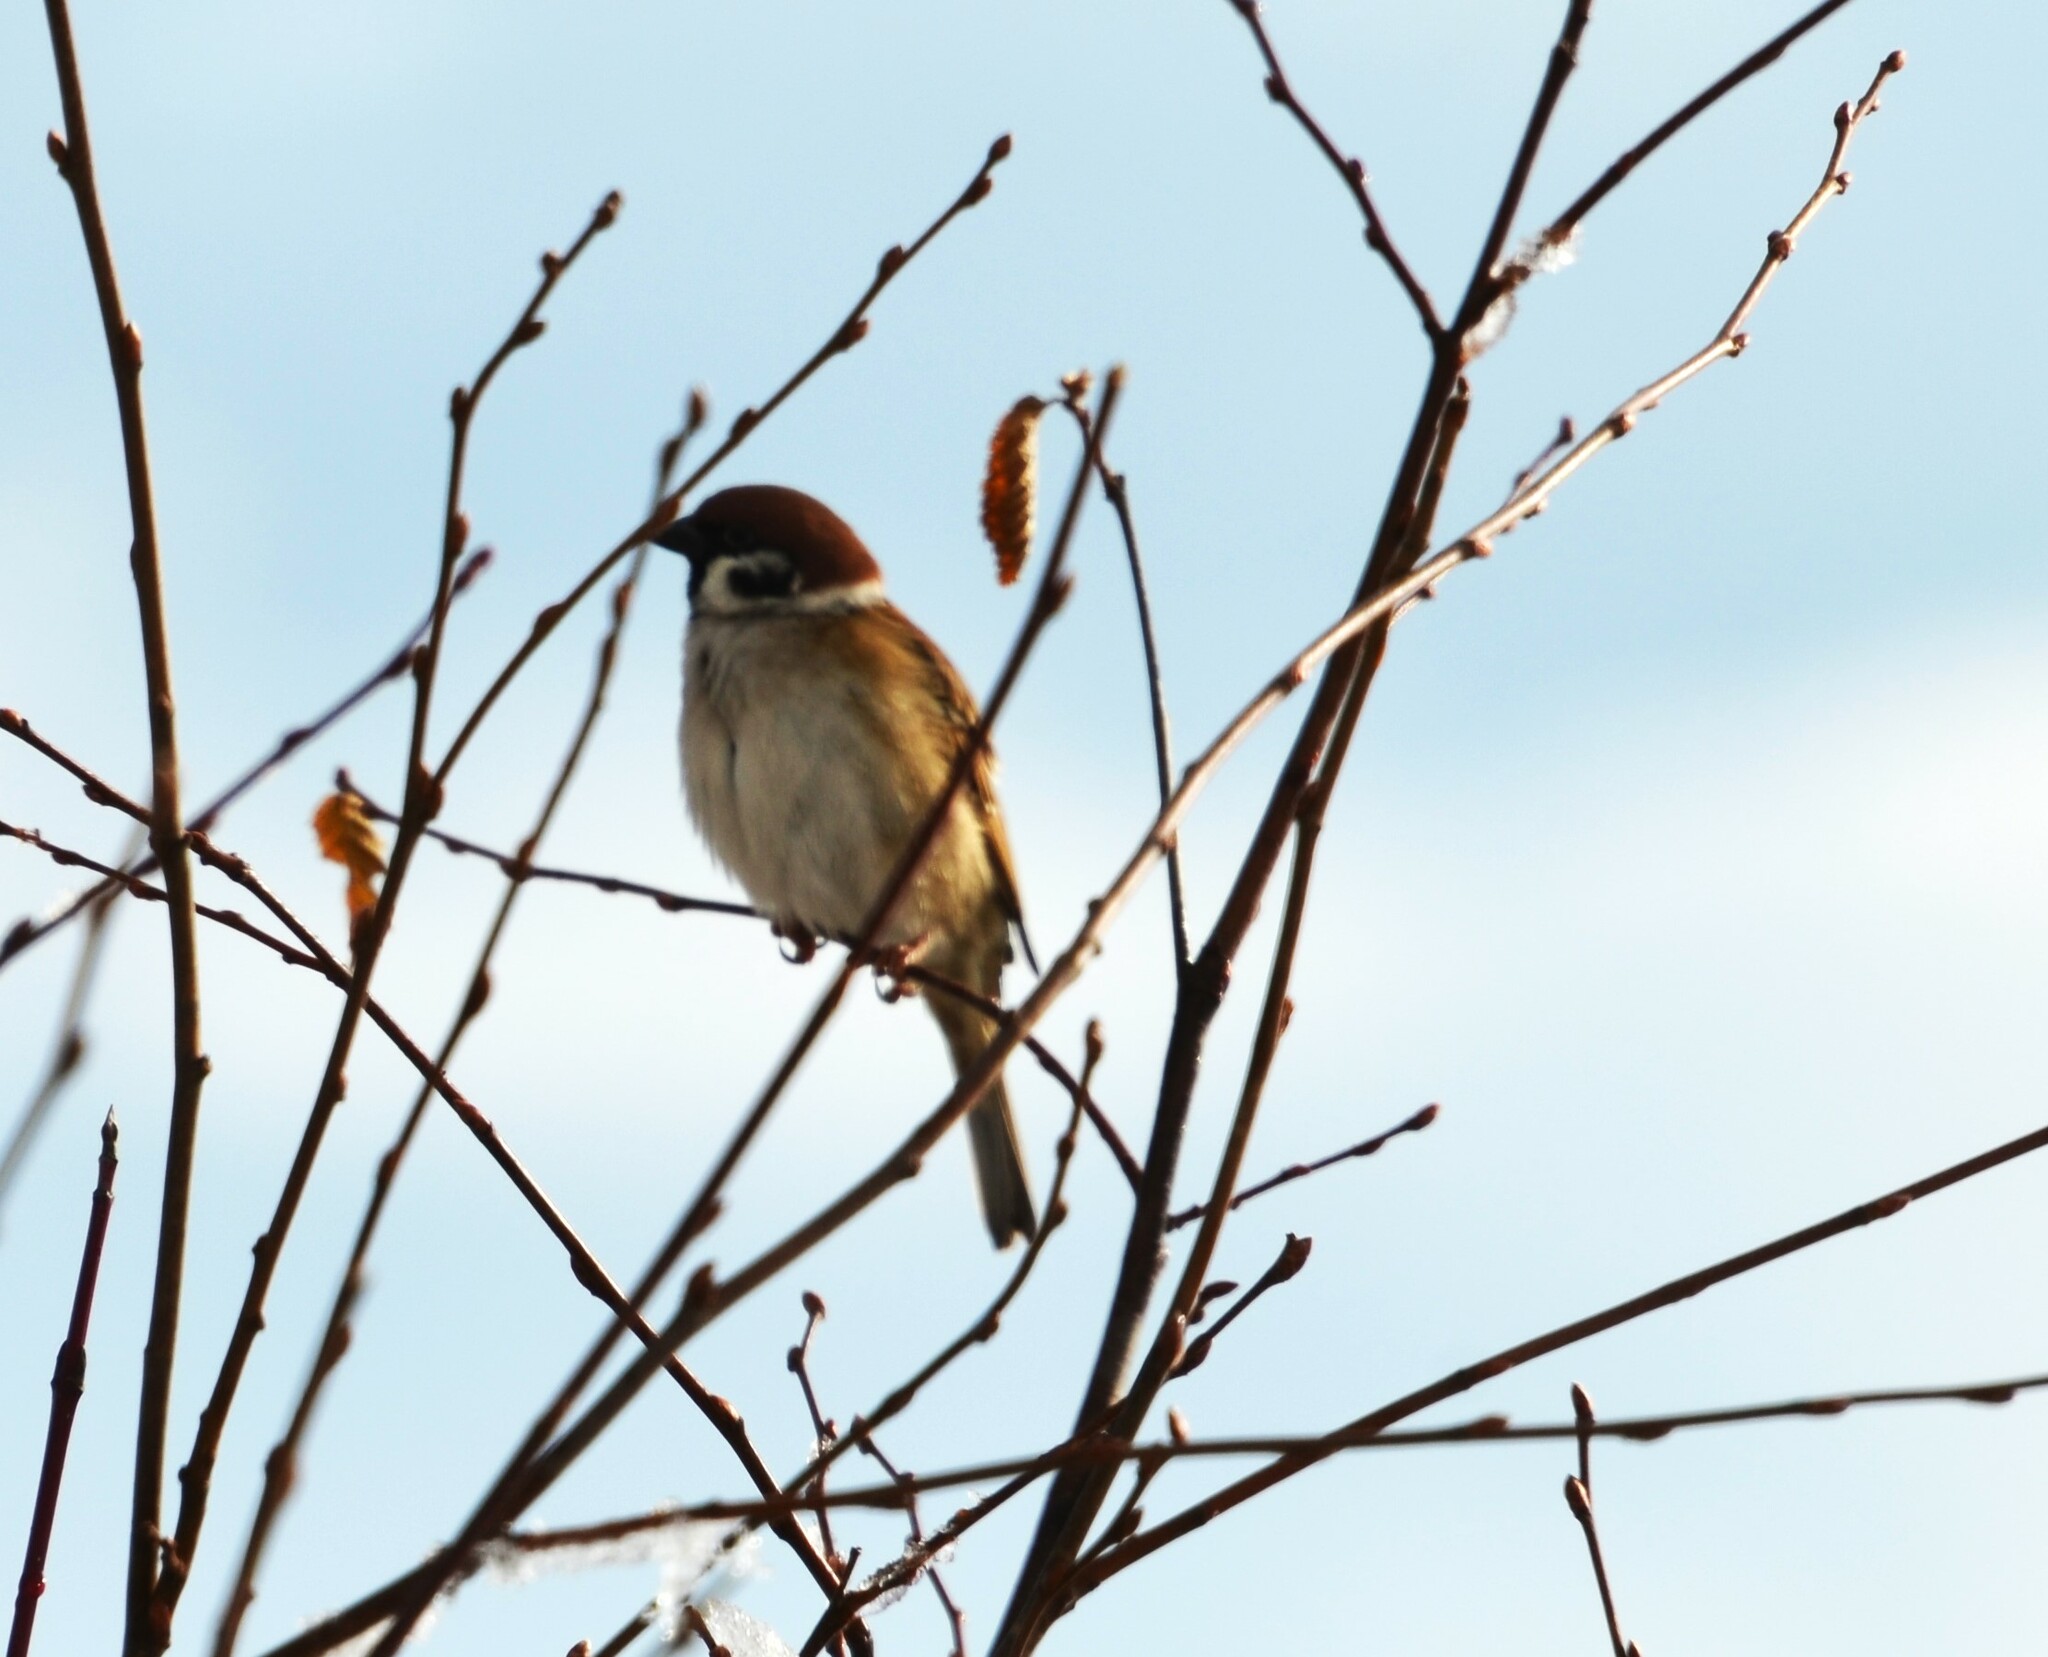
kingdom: Animalia
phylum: Chordata
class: Aves
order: Passeriformes
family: Passeridae
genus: Passer
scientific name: Passer montanus
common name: Eurasian tree sparrow
